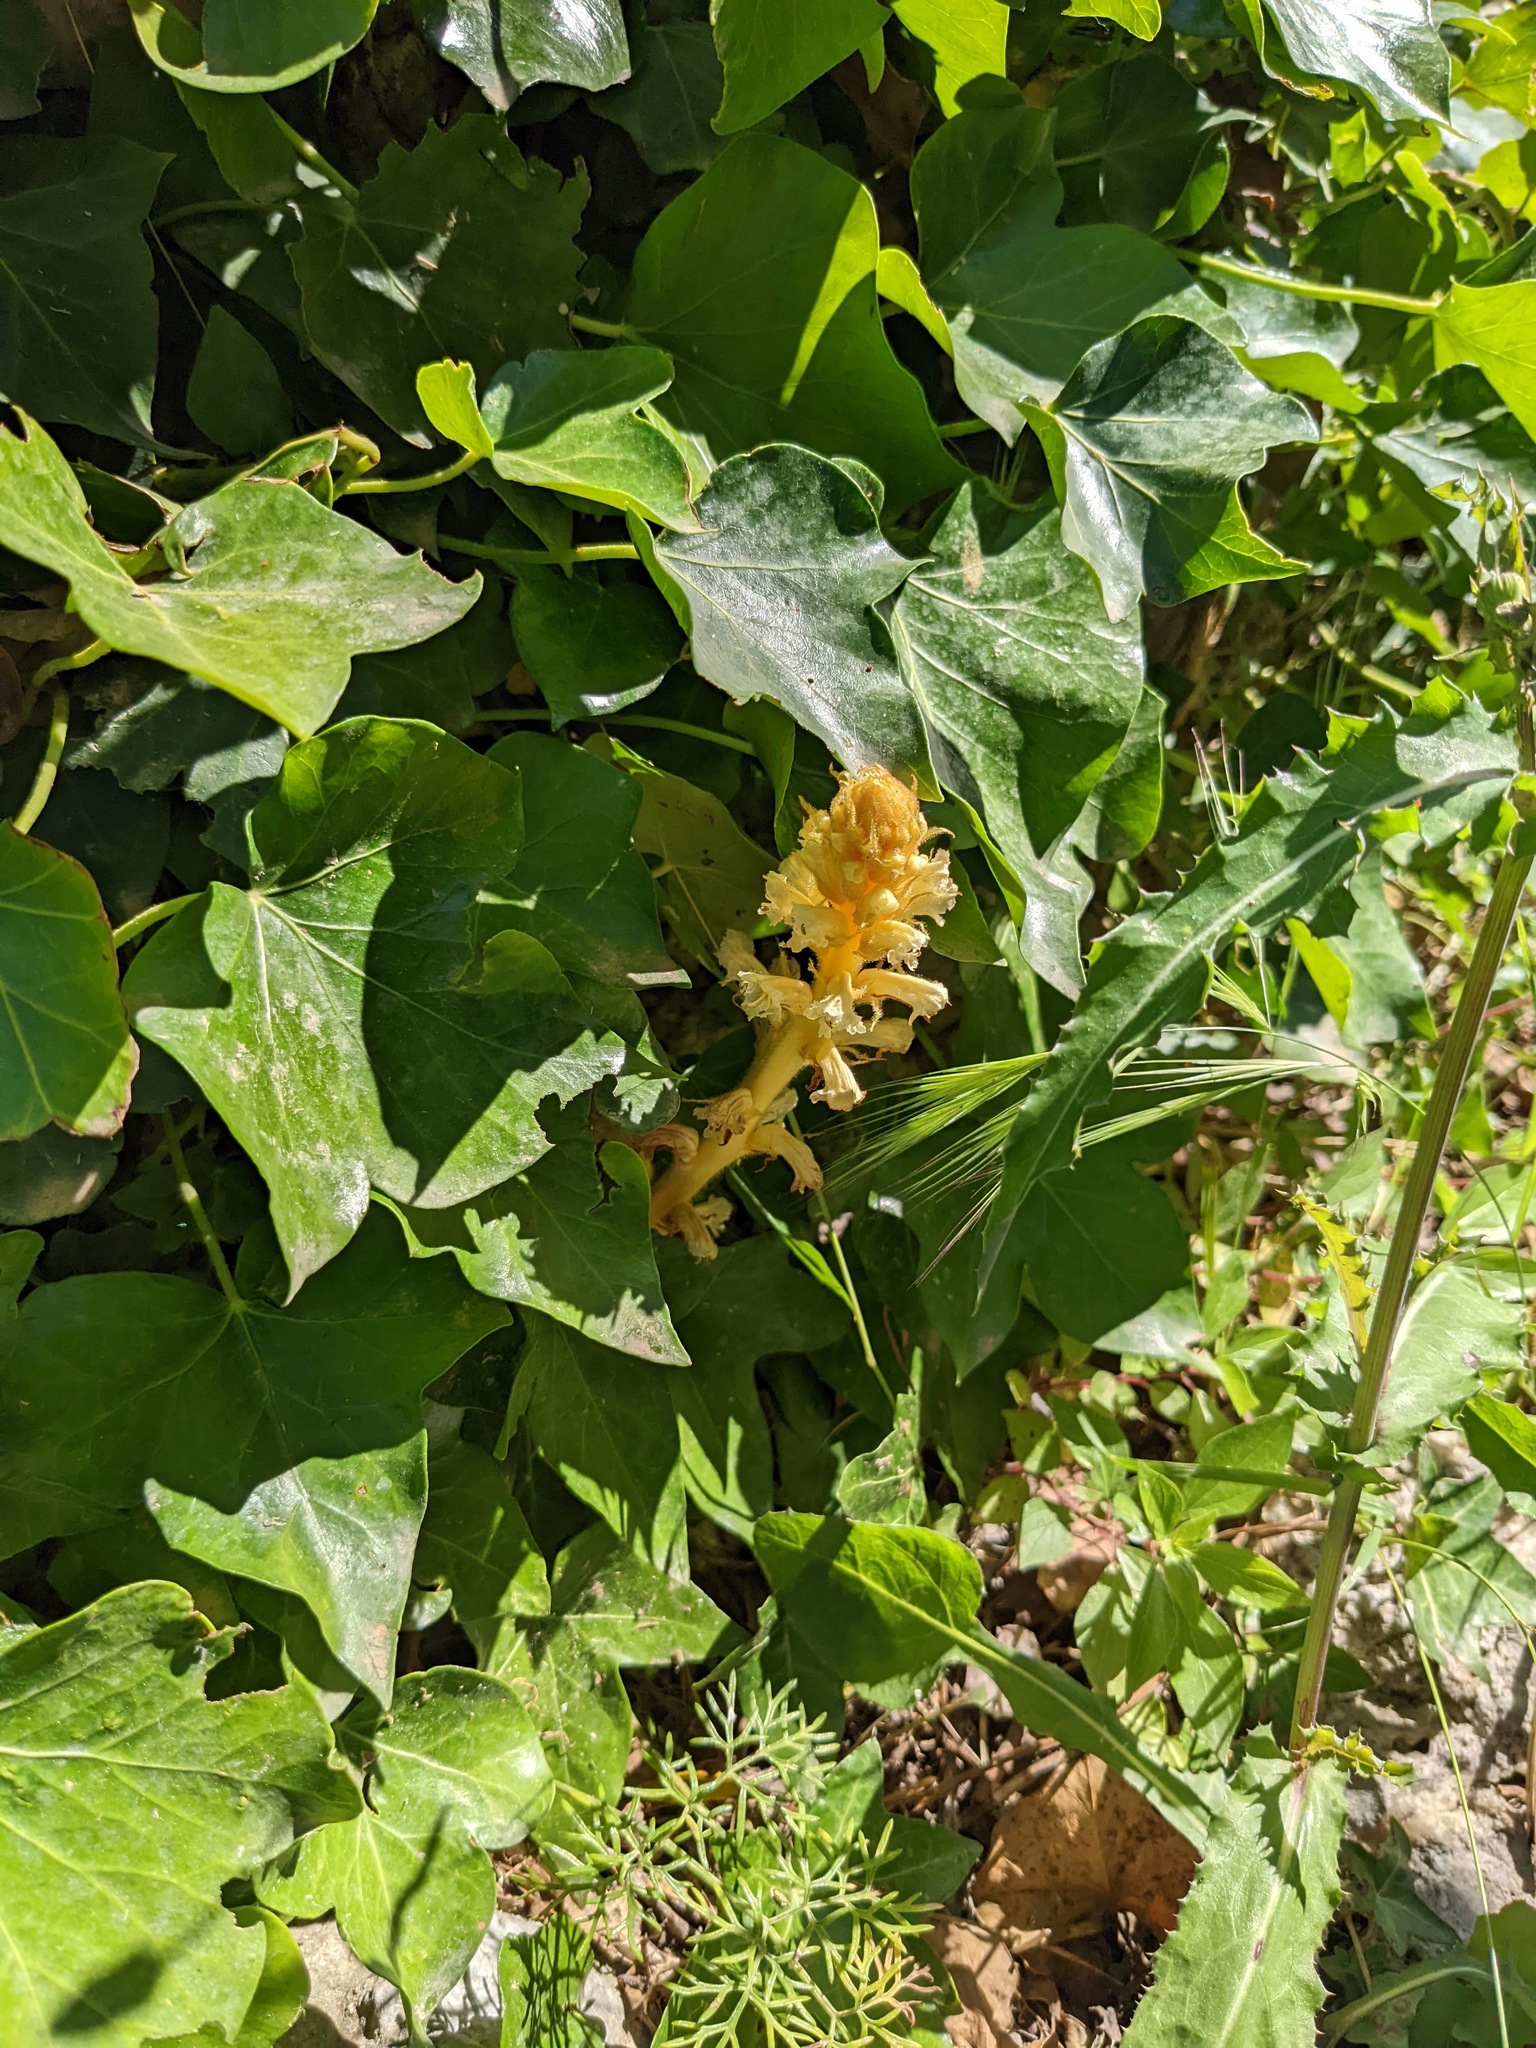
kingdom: Plantae
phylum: Tracheophyta
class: Magnoliopsida
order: Lamiales
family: Orobanchaceae
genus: Orobanche
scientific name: Orobanche hederae
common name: Ivy broomrape
